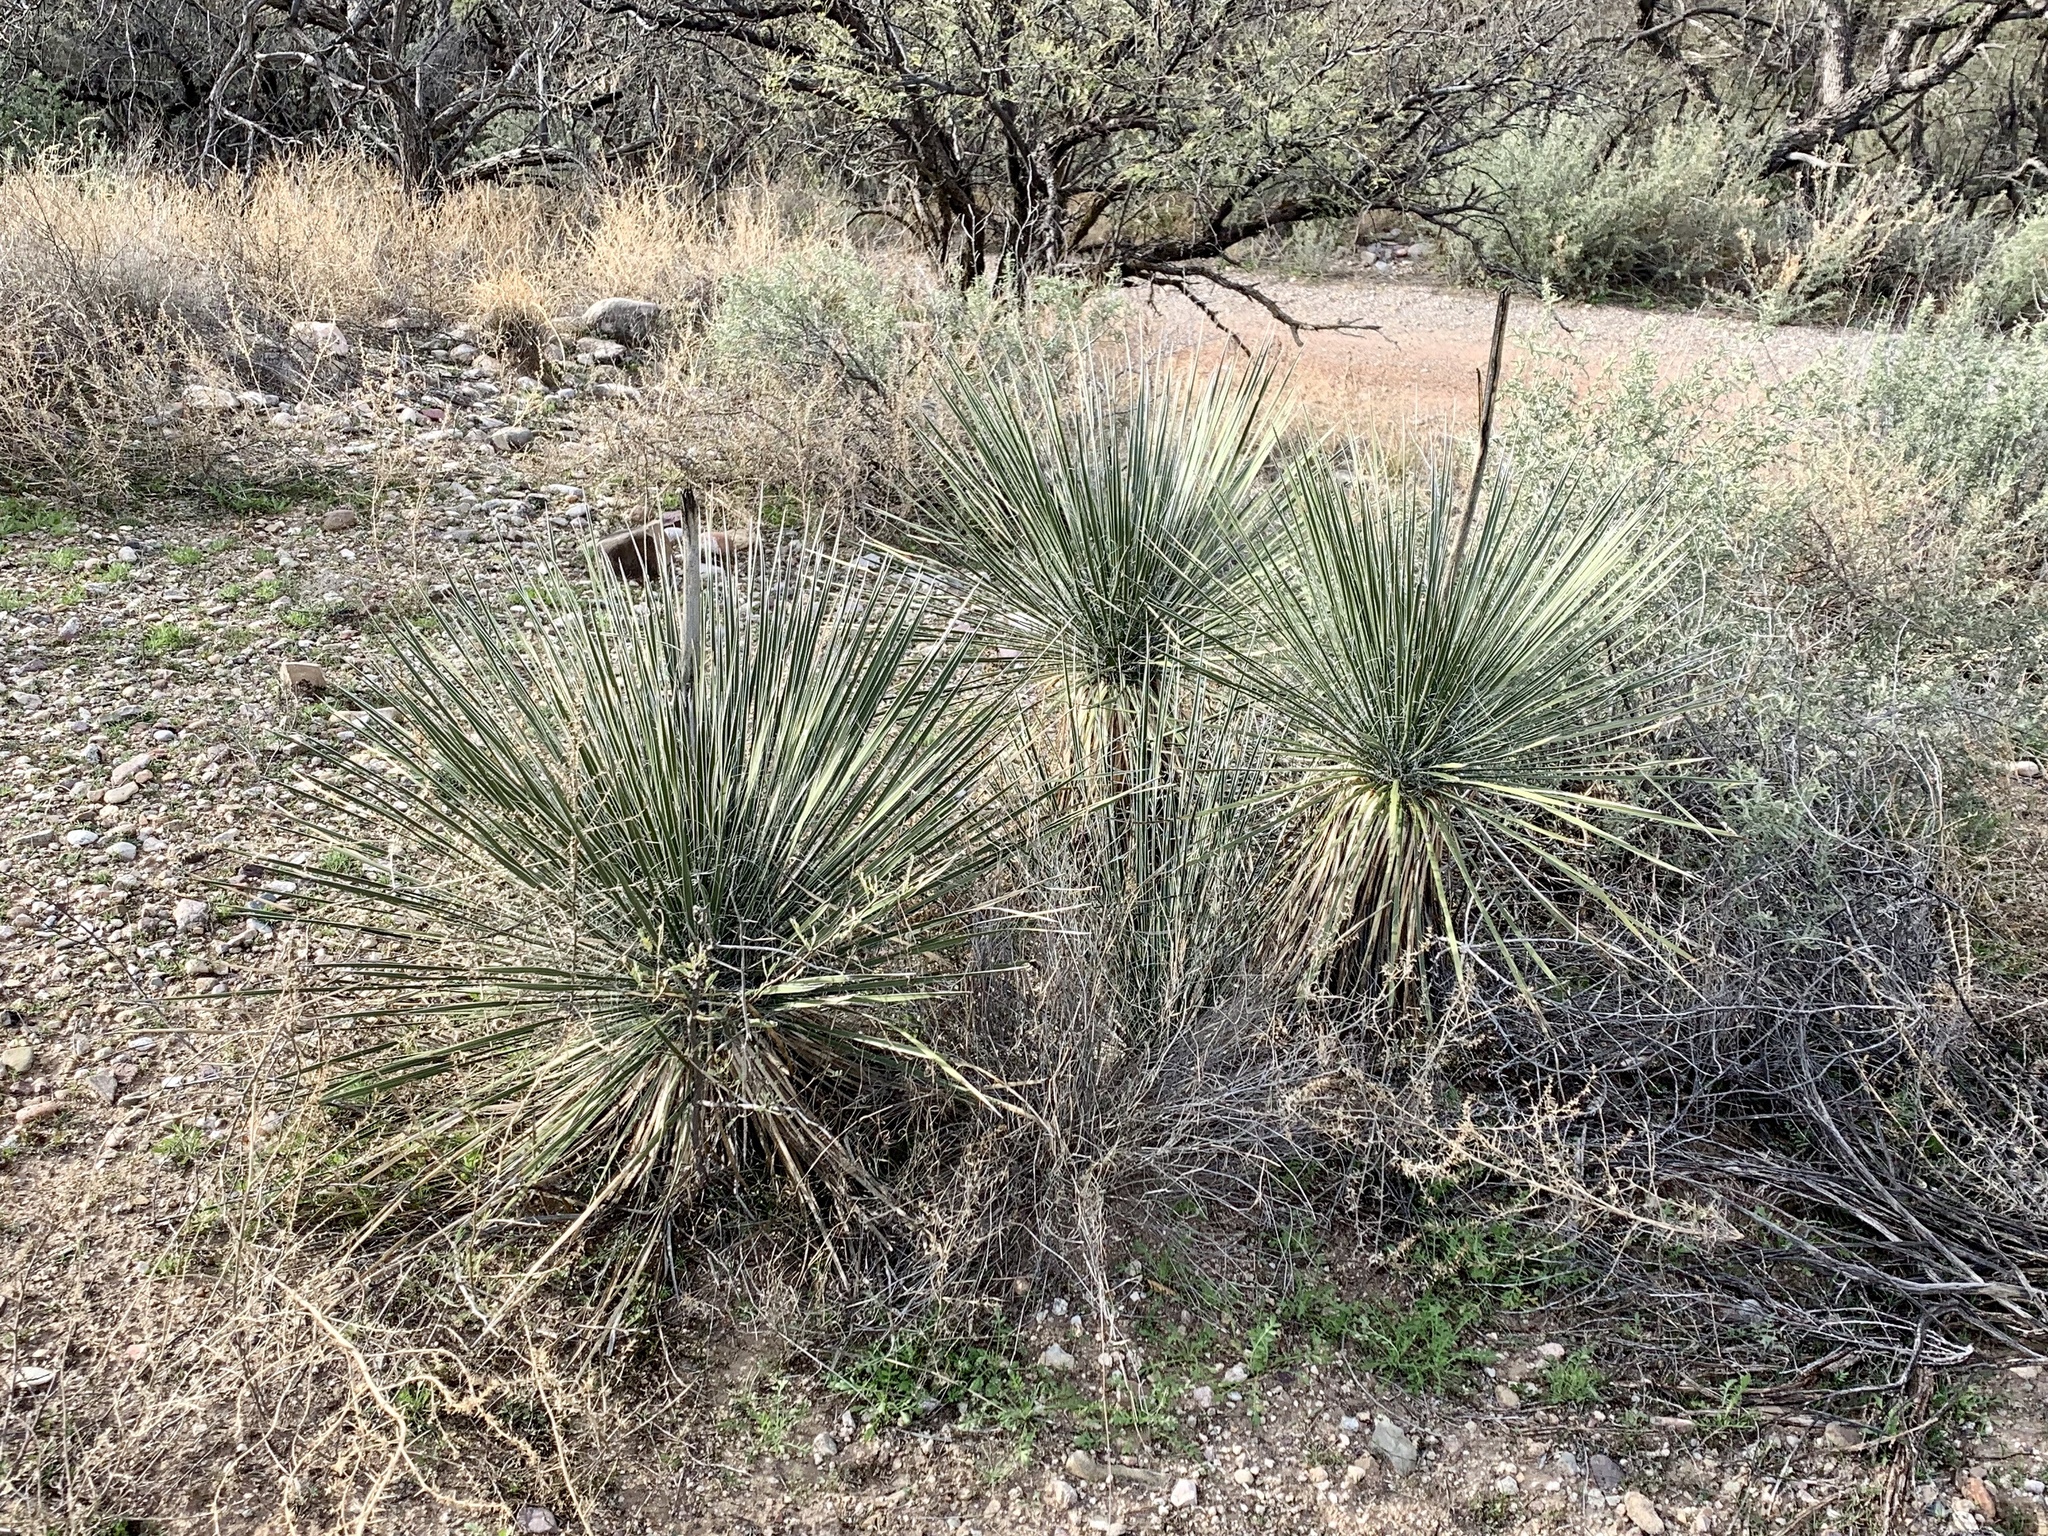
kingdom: Plantae
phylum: Tracheophyta
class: Liliopsida
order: Asparagales
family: Asparagaceae
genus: Yucca
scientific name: Yucca elata
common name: Palmella
